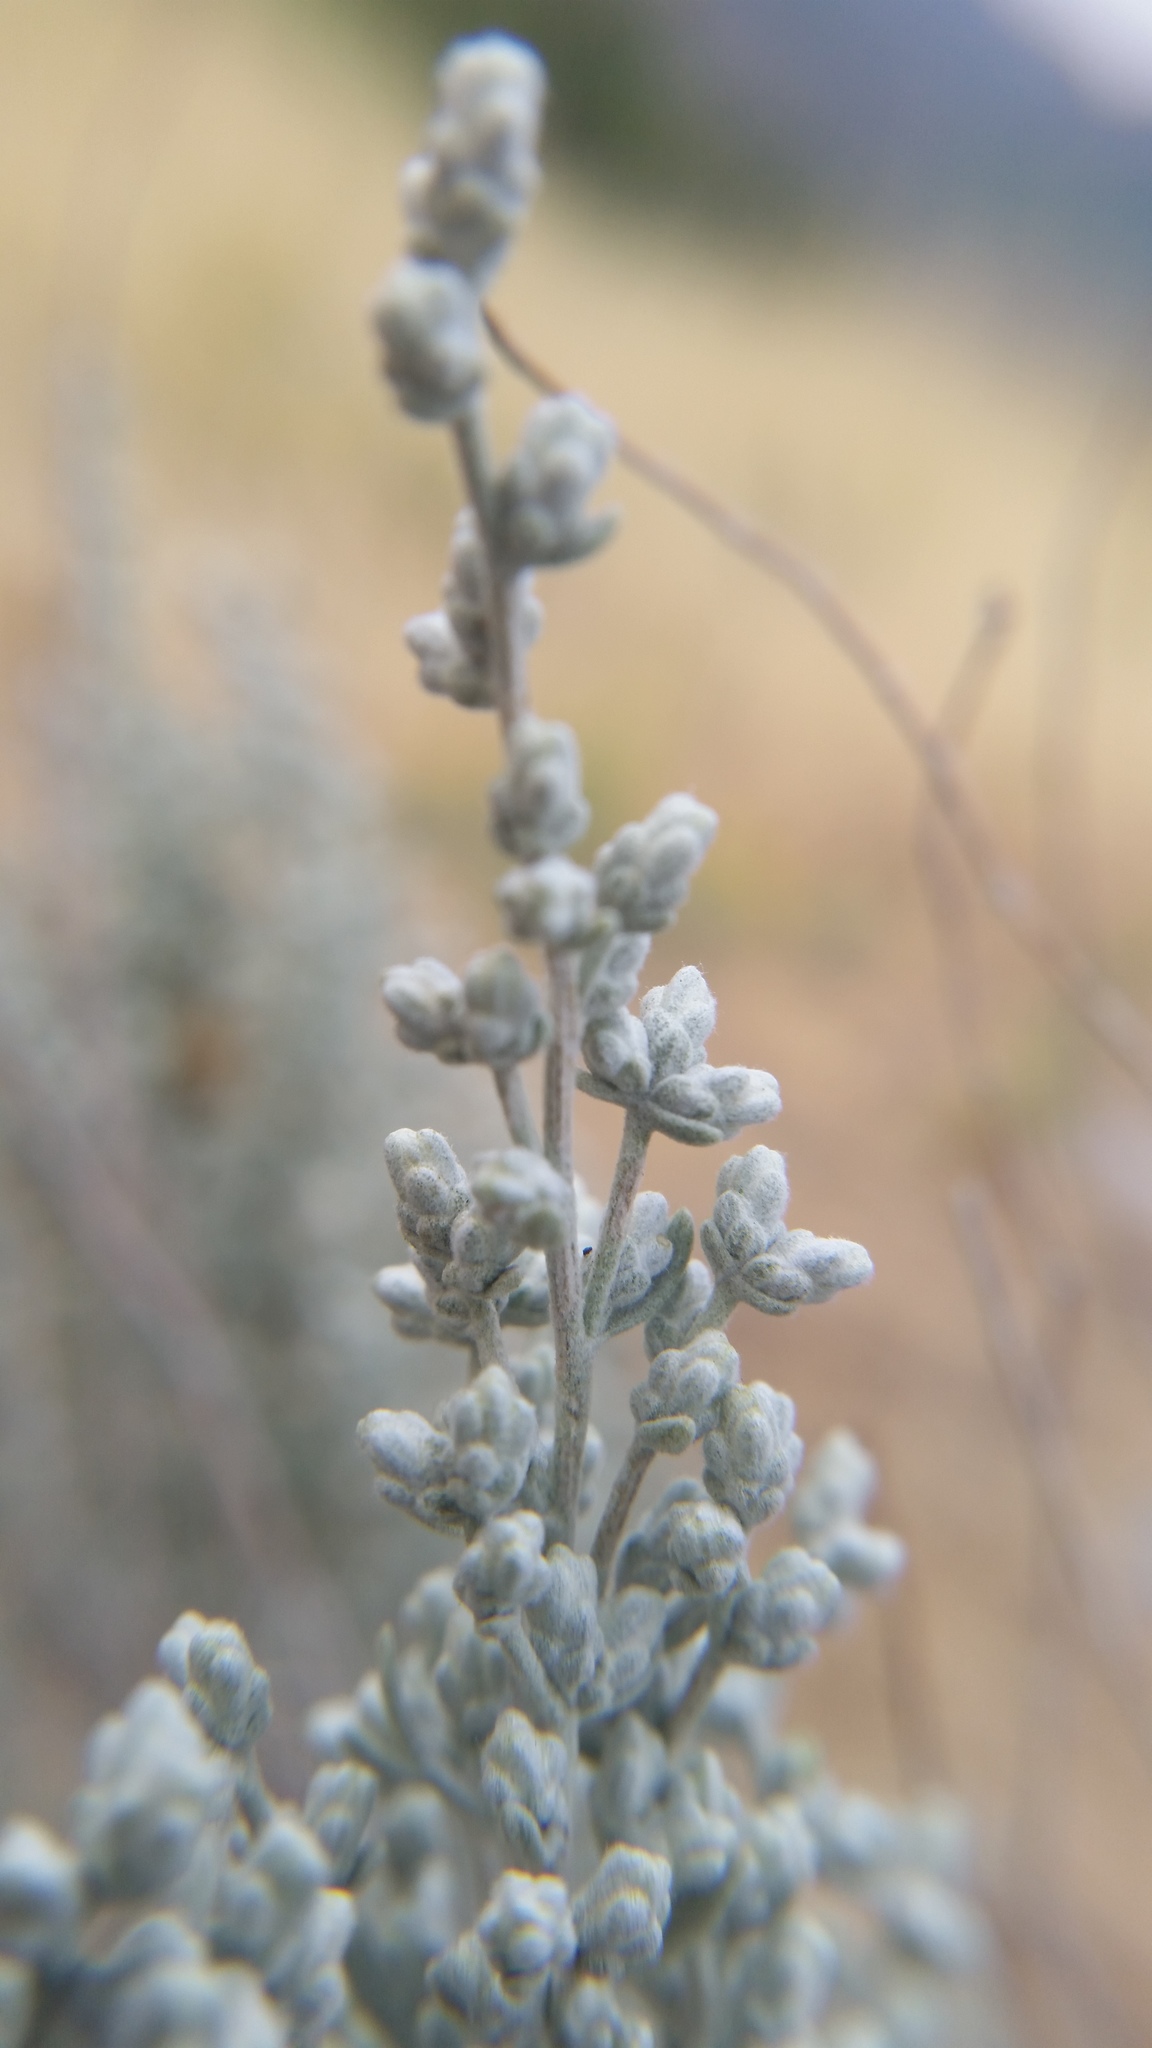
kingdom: Plantae
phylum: Tracheophyta
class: Magnoliopsida
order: Asterales
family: Asteraceae
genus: Artemisia
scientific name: Artemisia tridentata
